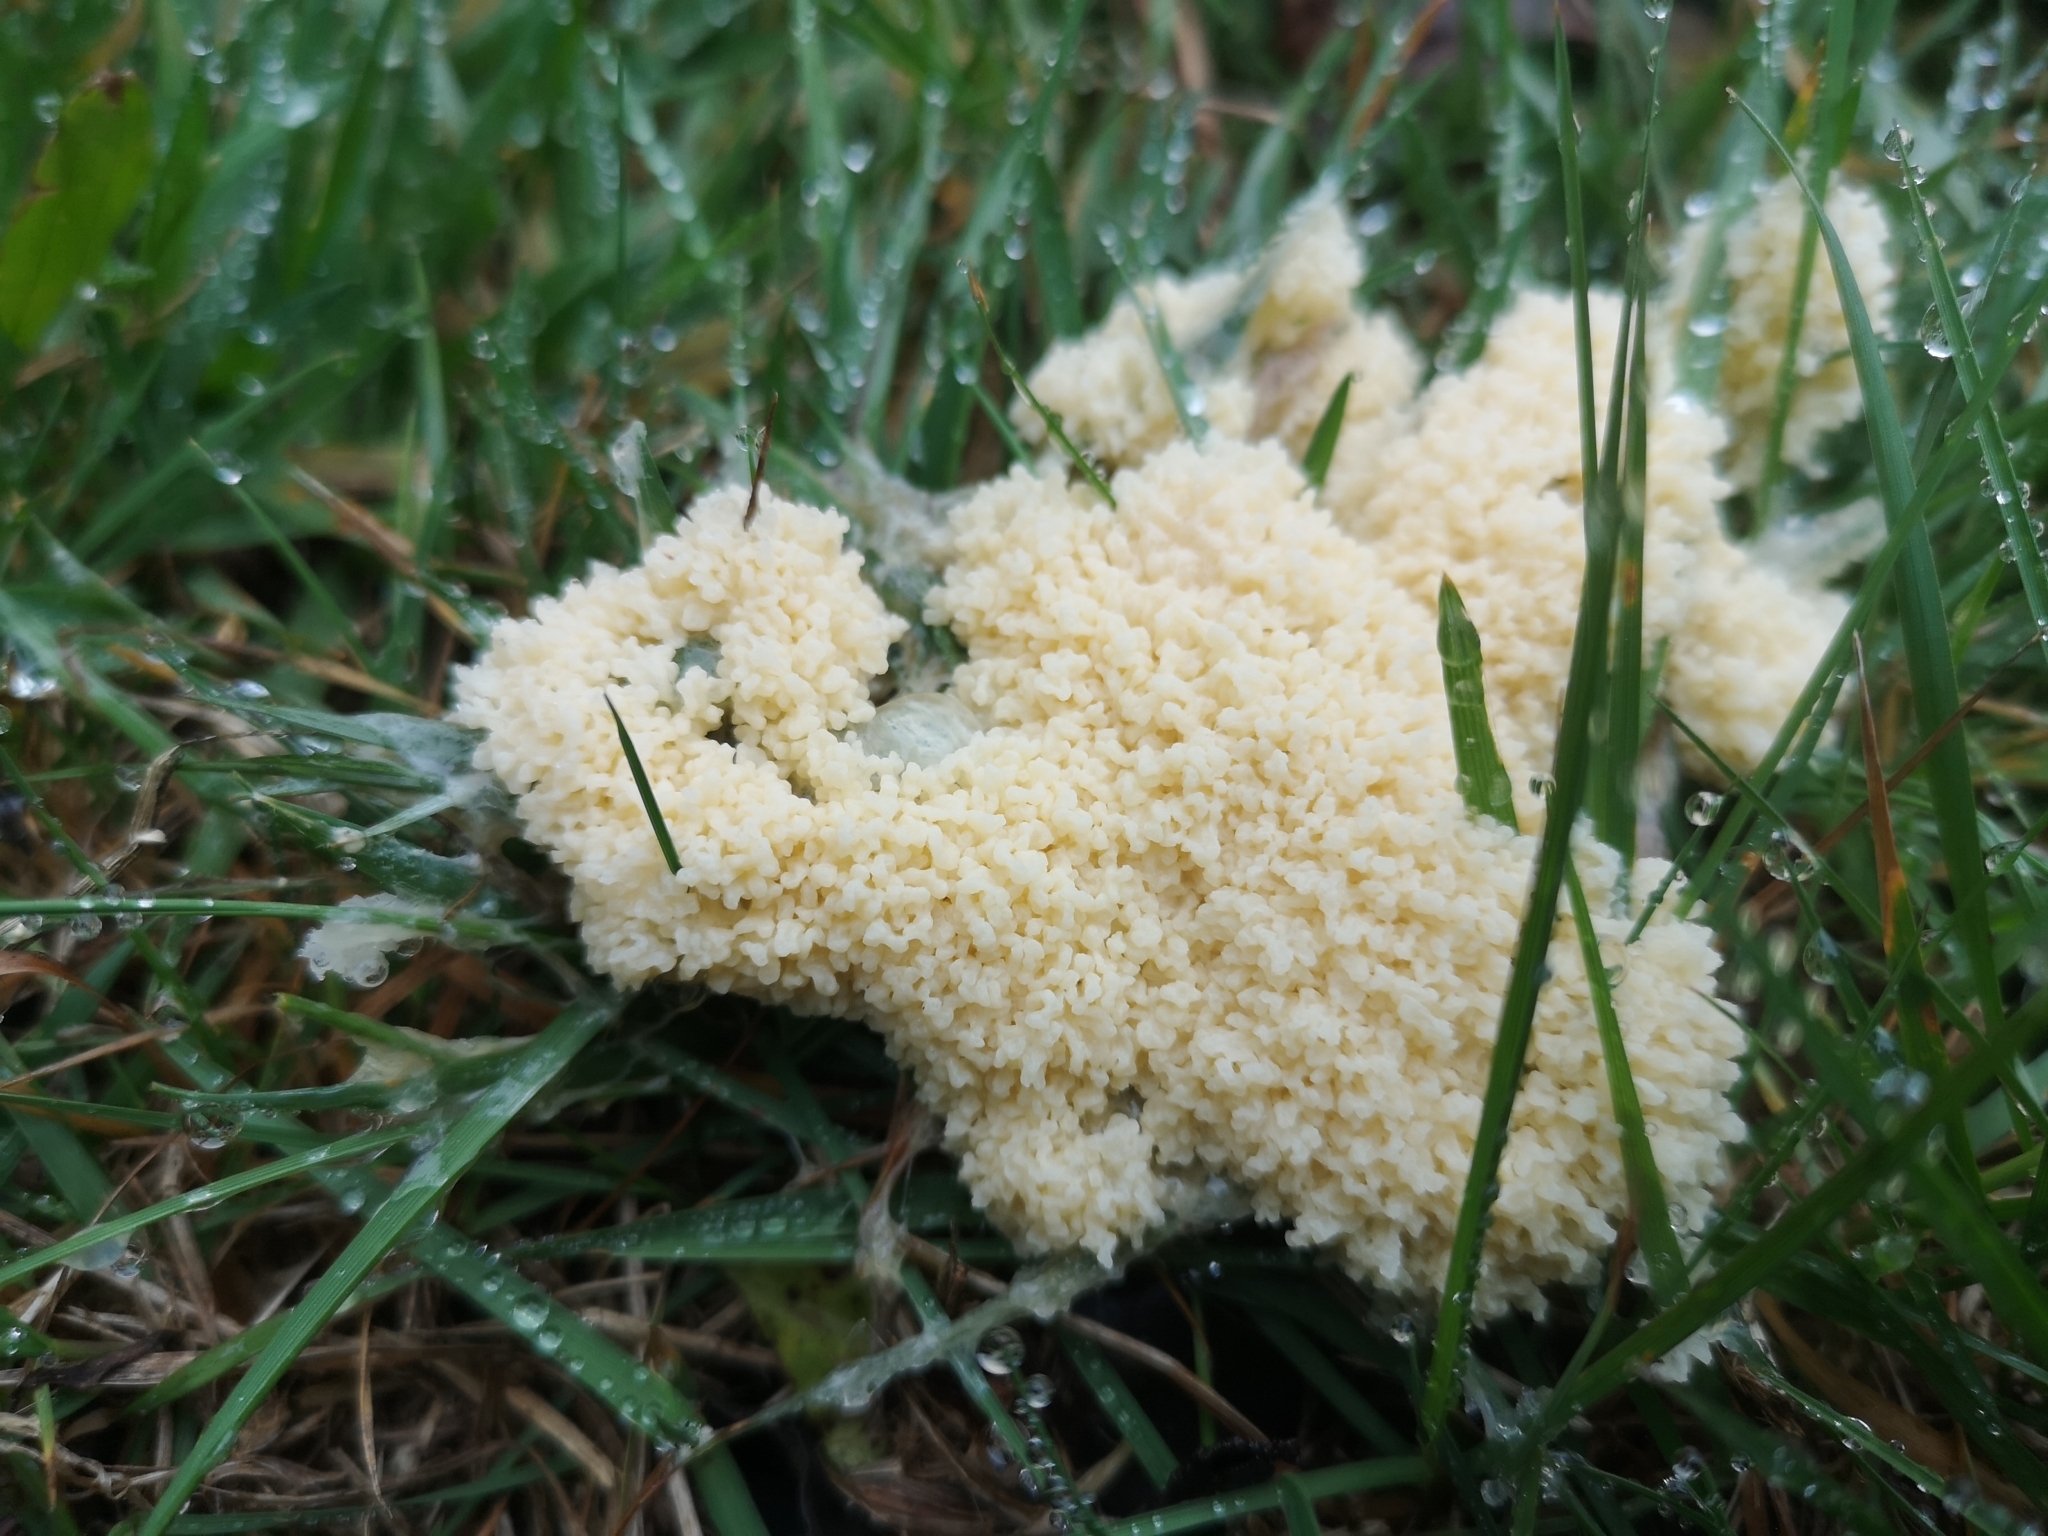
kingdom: Protozoa
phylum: Mycetozoa
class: Myxomycetes
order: Physarales
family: Physaraceae
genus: Didymium
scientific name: Didymium
